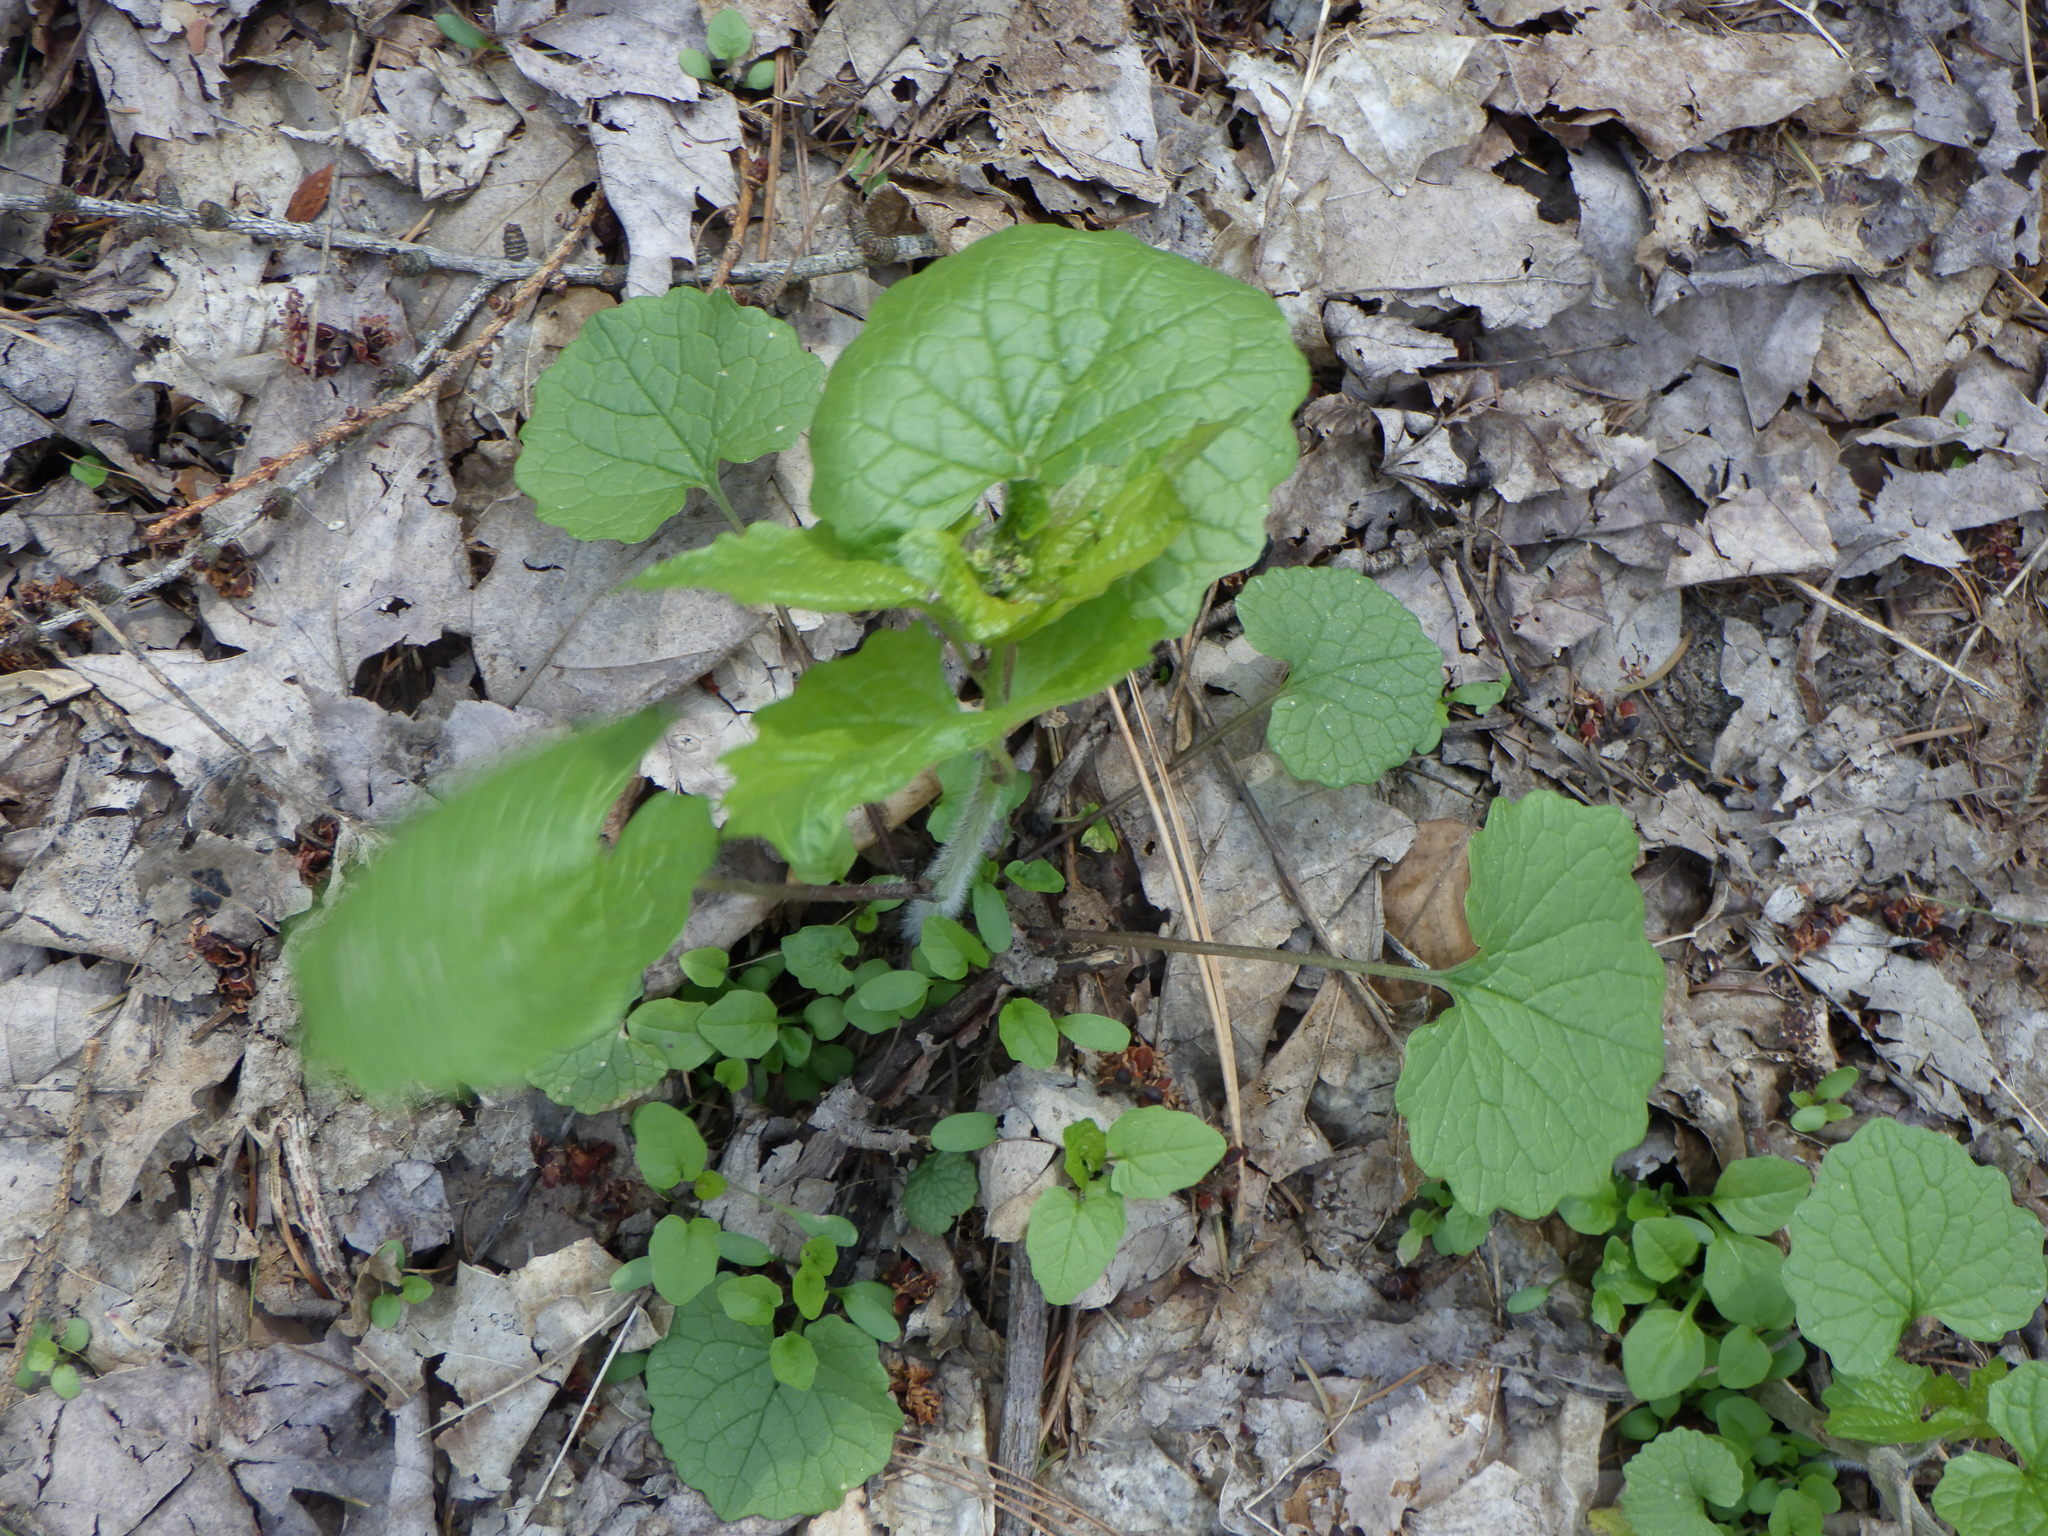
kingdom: Plantae
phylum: Tracheophyta
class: Magnoliopsida
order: Brassicales
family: Brassicaceae
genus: Alliaria
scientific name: Alliaria petiolata
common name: Garlic mustard
